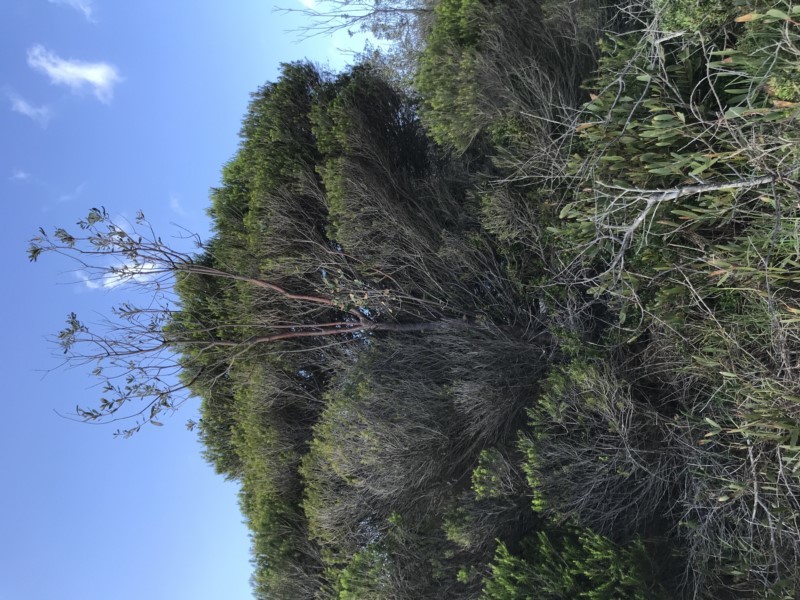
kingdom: Plantae
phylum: Tracheophyta
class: Magnoliopsida
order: Proteales
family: Proteaceae
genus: Banksia
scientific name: Banksia integrifolia
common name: White-honeysuckle
